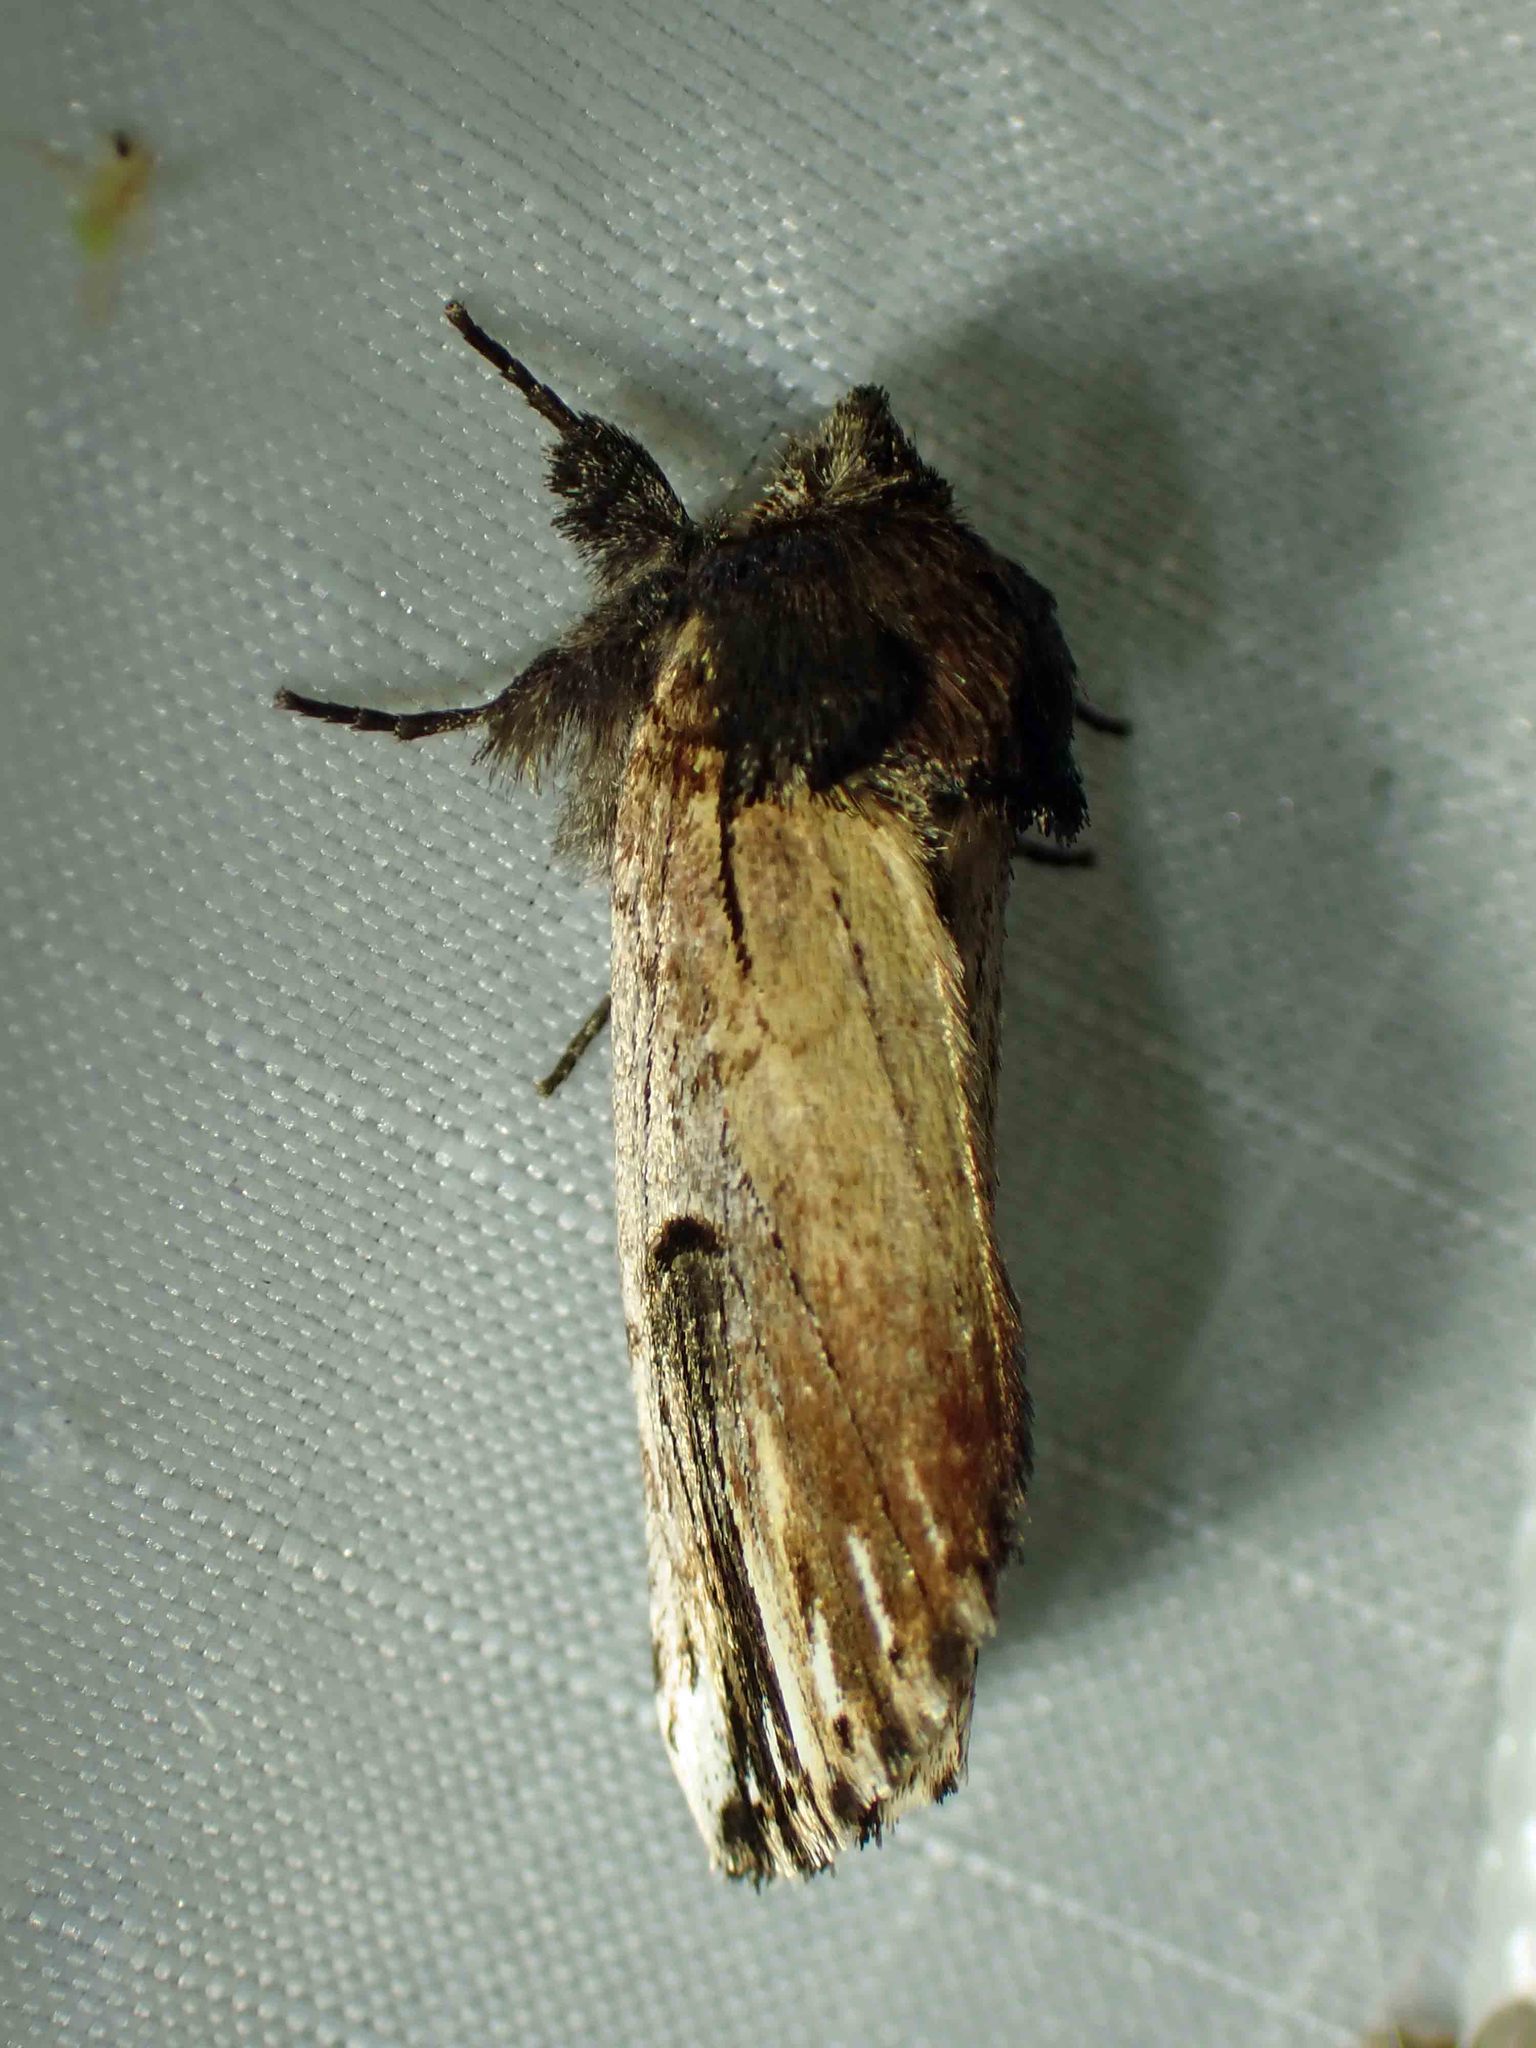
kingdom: Animalia
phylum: Arthropoda
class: Insecta
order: Lepidoptera
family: Notodontidae
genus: Schizura
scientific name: Schizura badia
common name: Chestnut schizura
